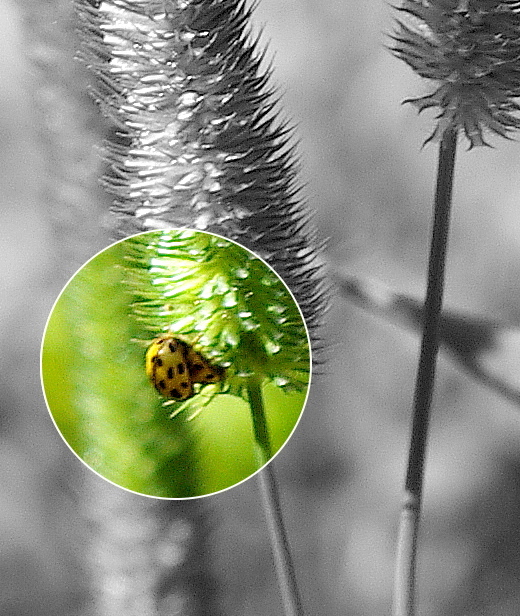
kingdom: Animalia
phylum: Arthropoda
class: Insecta
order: Coleoptera
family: Coccinellidae
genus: Propylaea
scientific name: Propylaea quatuordecimpunctata
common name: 14-spotted ladybird beetle
